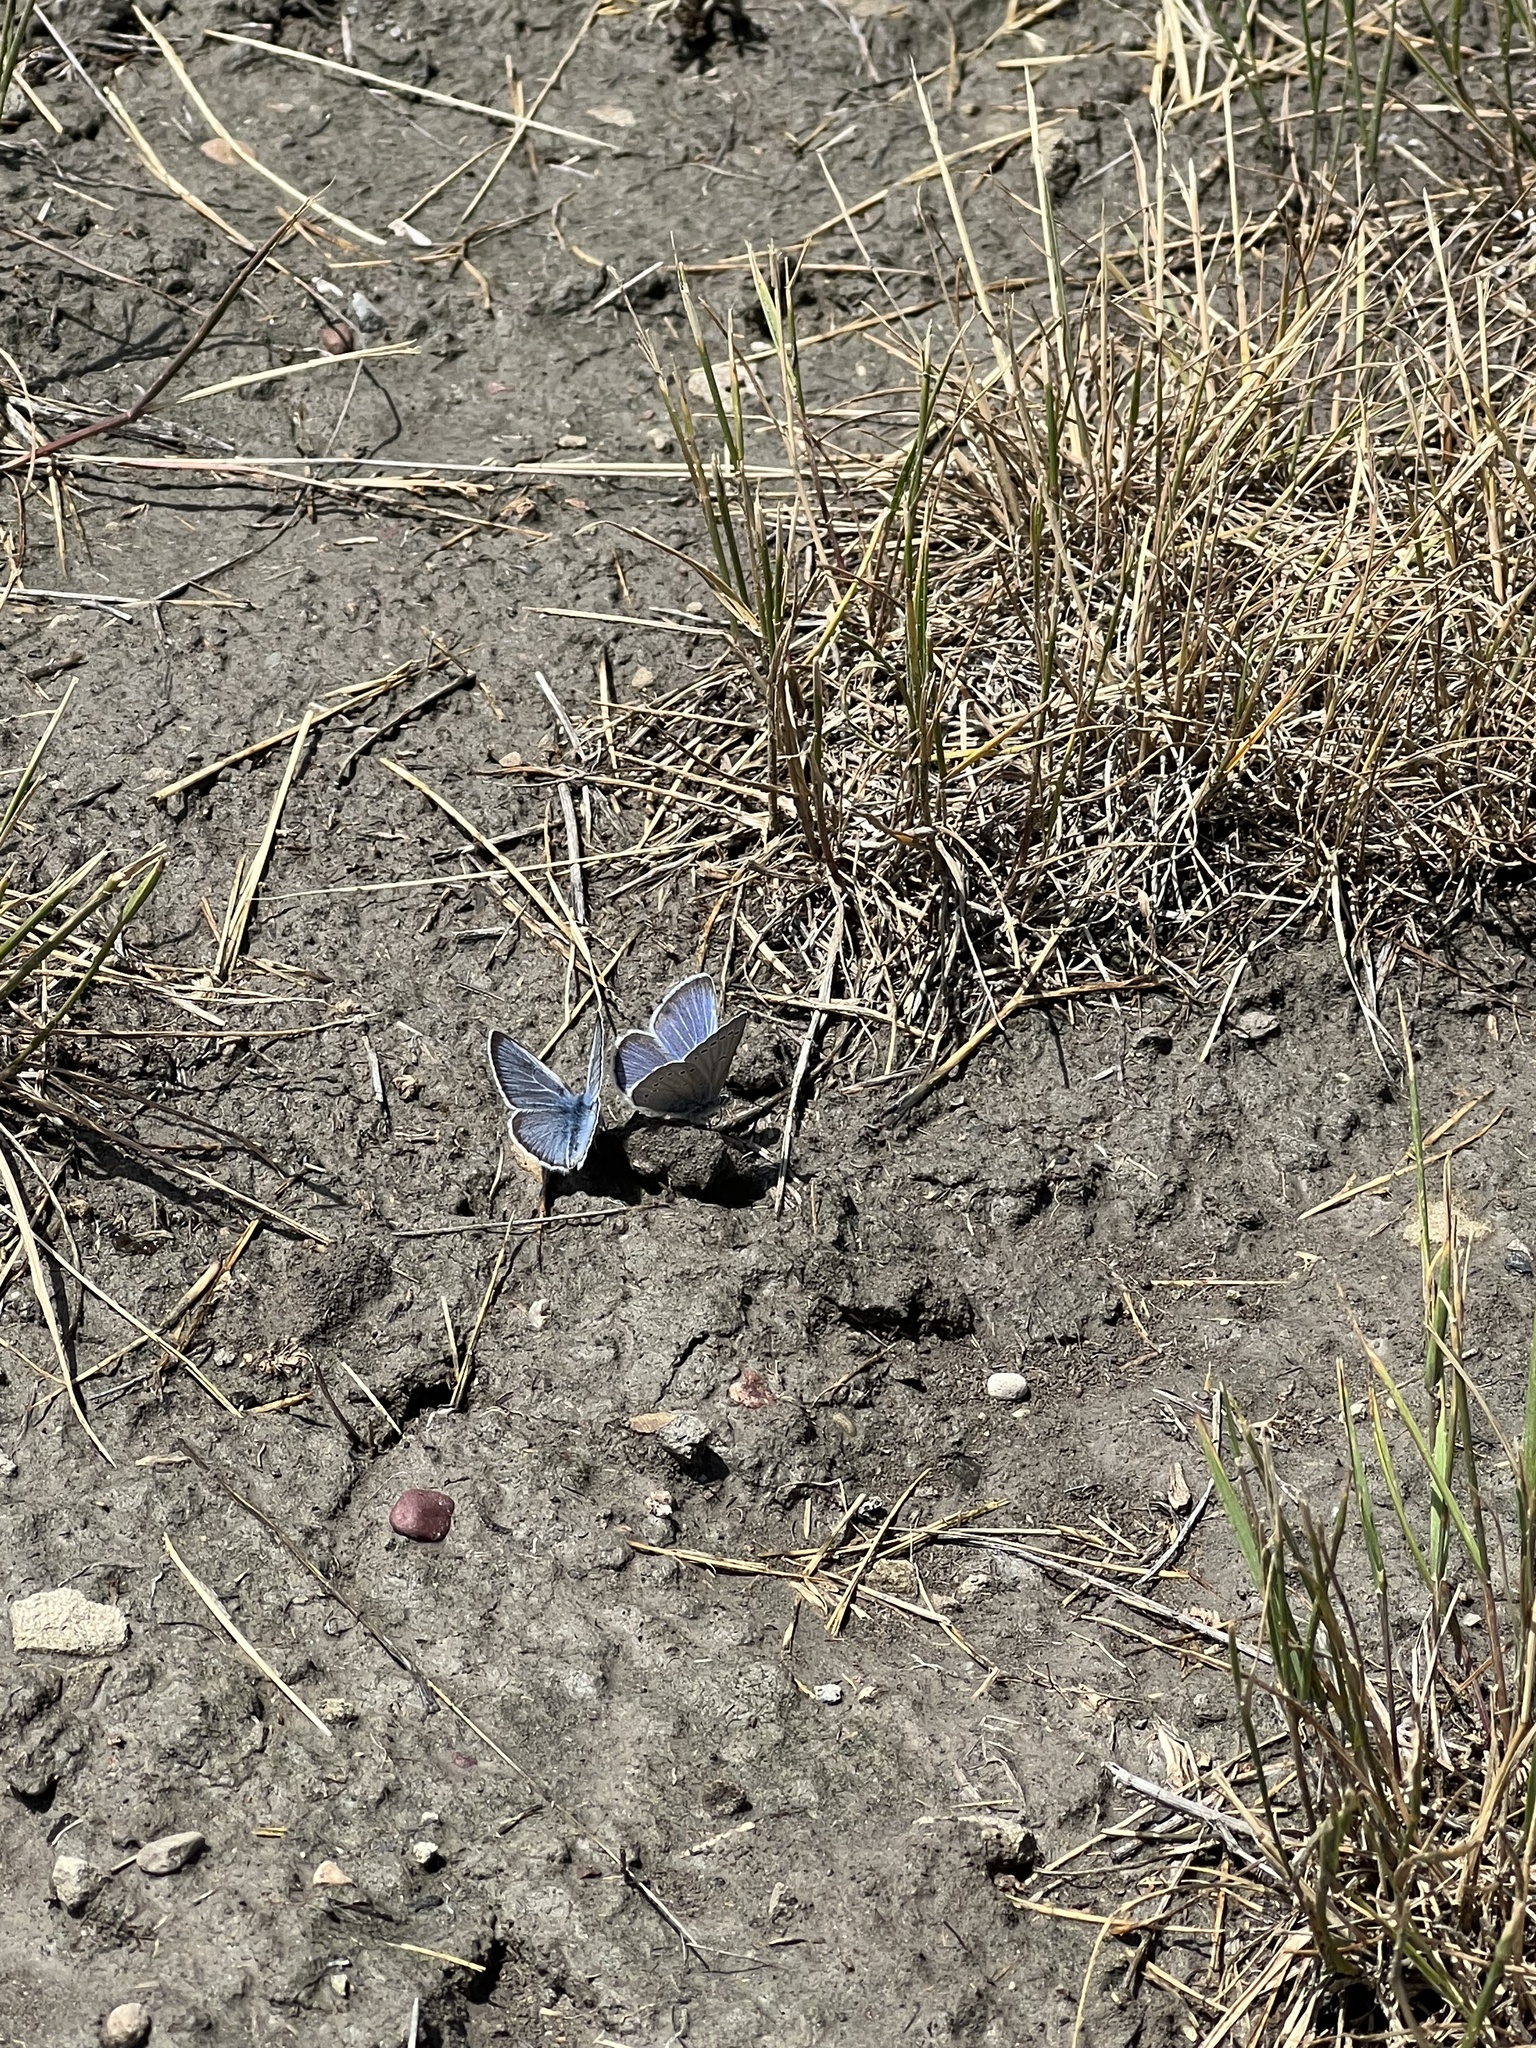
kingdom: Animalia
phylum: Arthropoda
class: Insecta
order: Lepidoptera
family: Lycaenidae
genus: Glaucopsyche
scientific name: Glaucopsyche lygdamus
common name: Silvery blue
